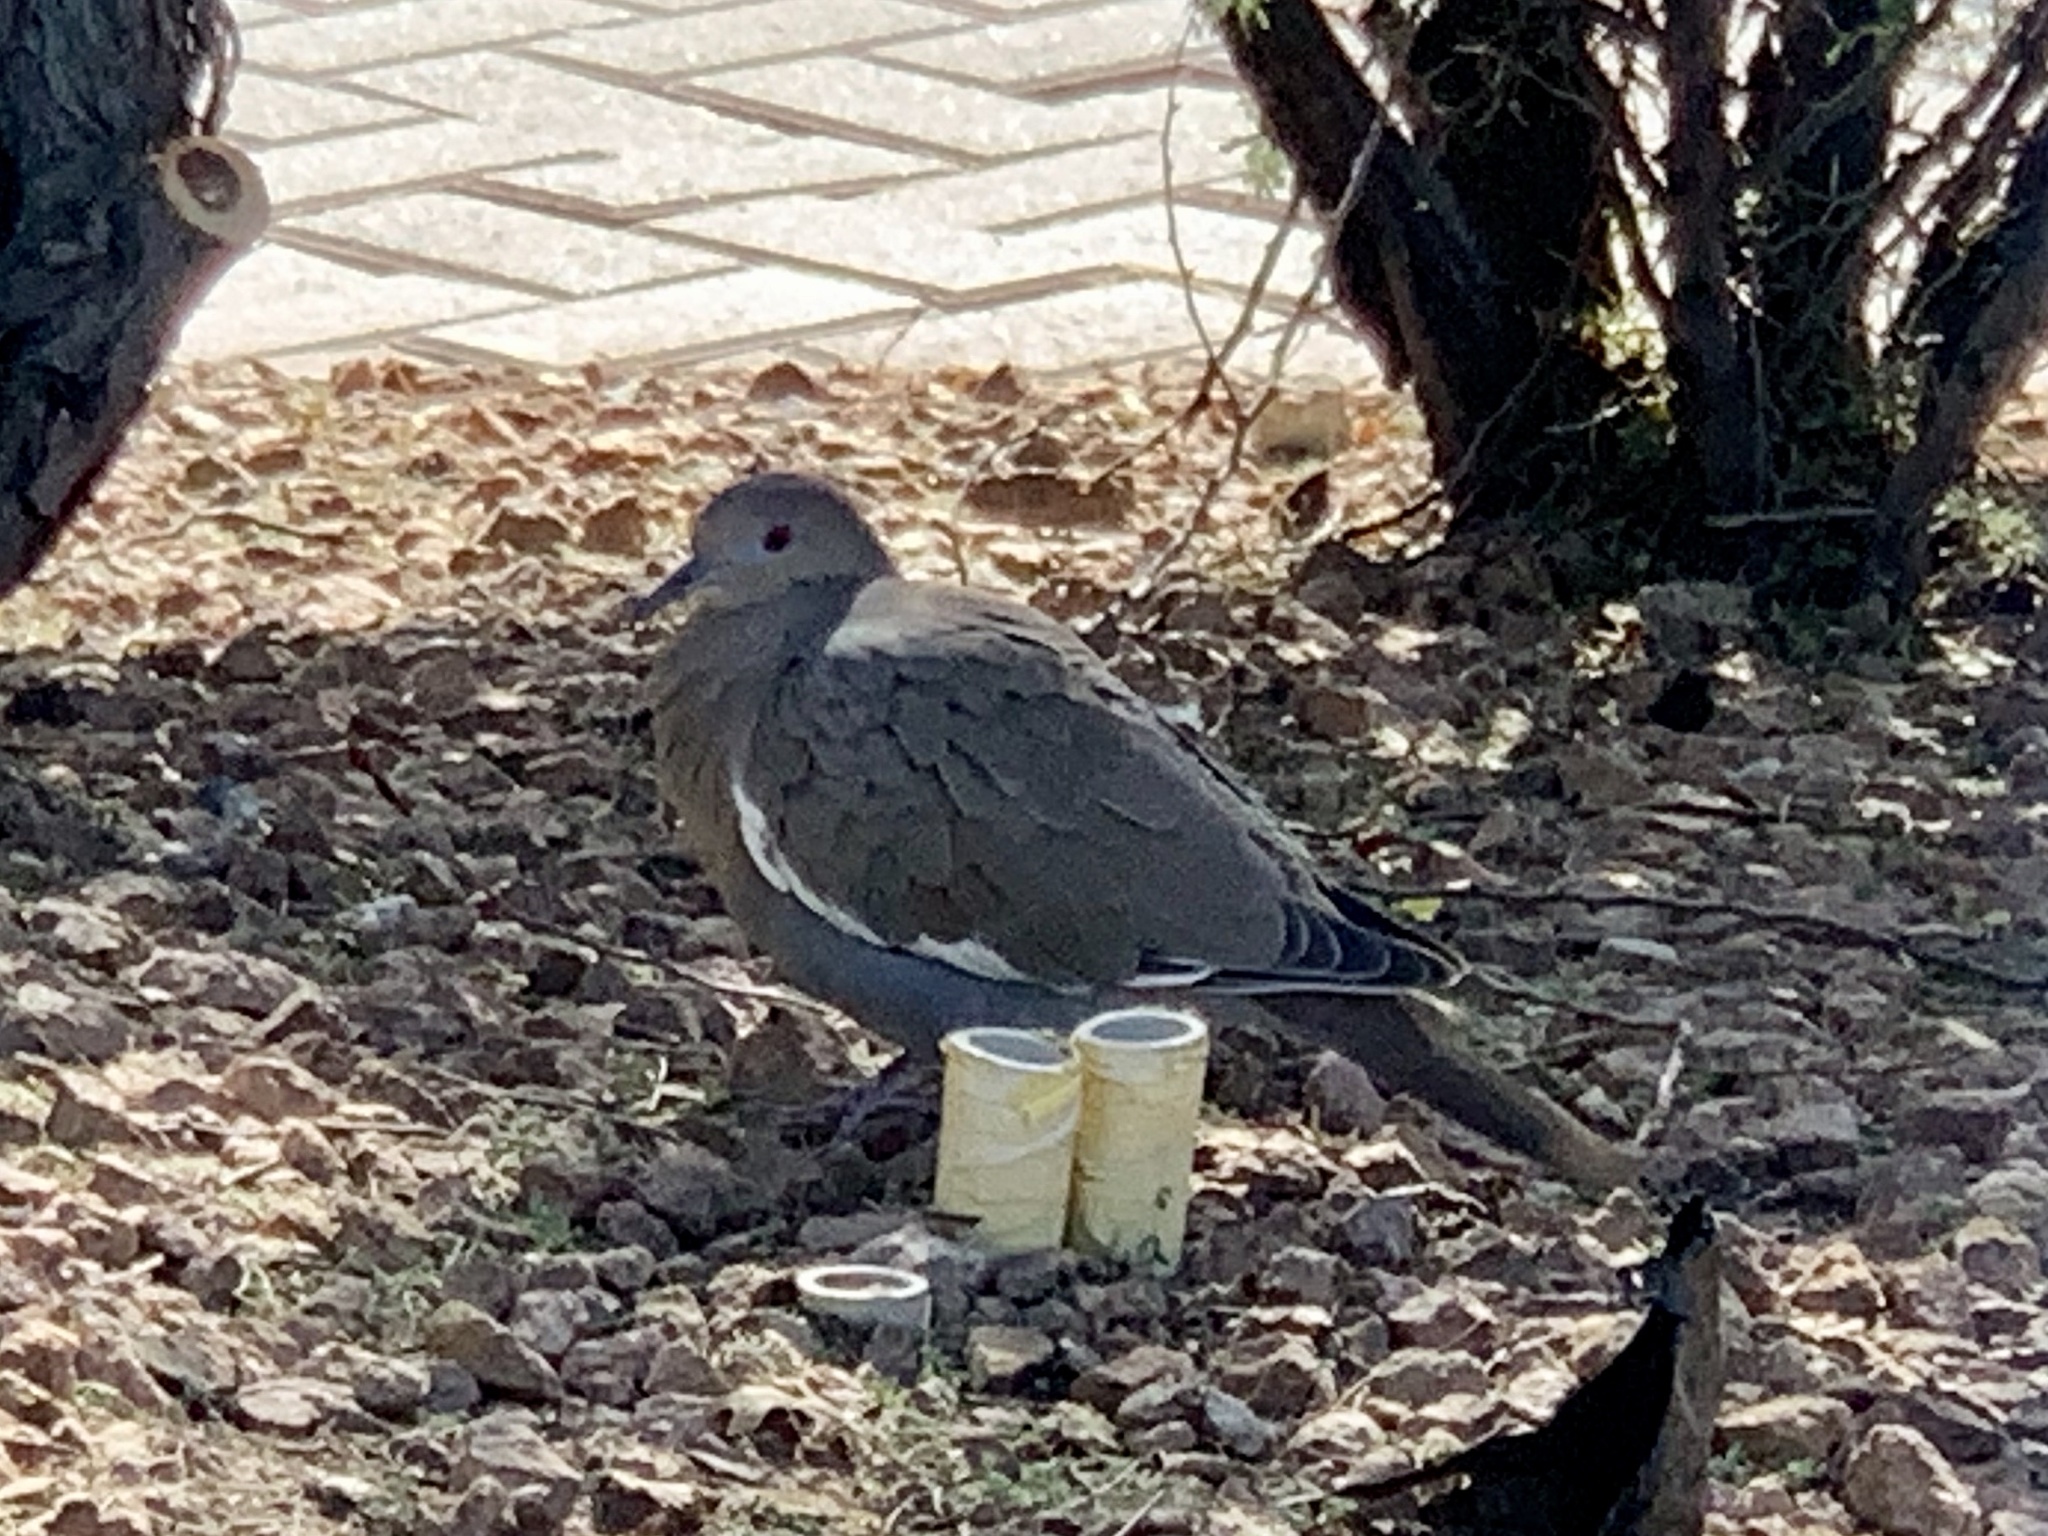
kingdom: Animalia
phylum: Chordata
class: Aves
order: Columbiformes
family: Columbidae
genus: Zenaida
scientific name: Zenaida asiatica
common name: White-winged dove
